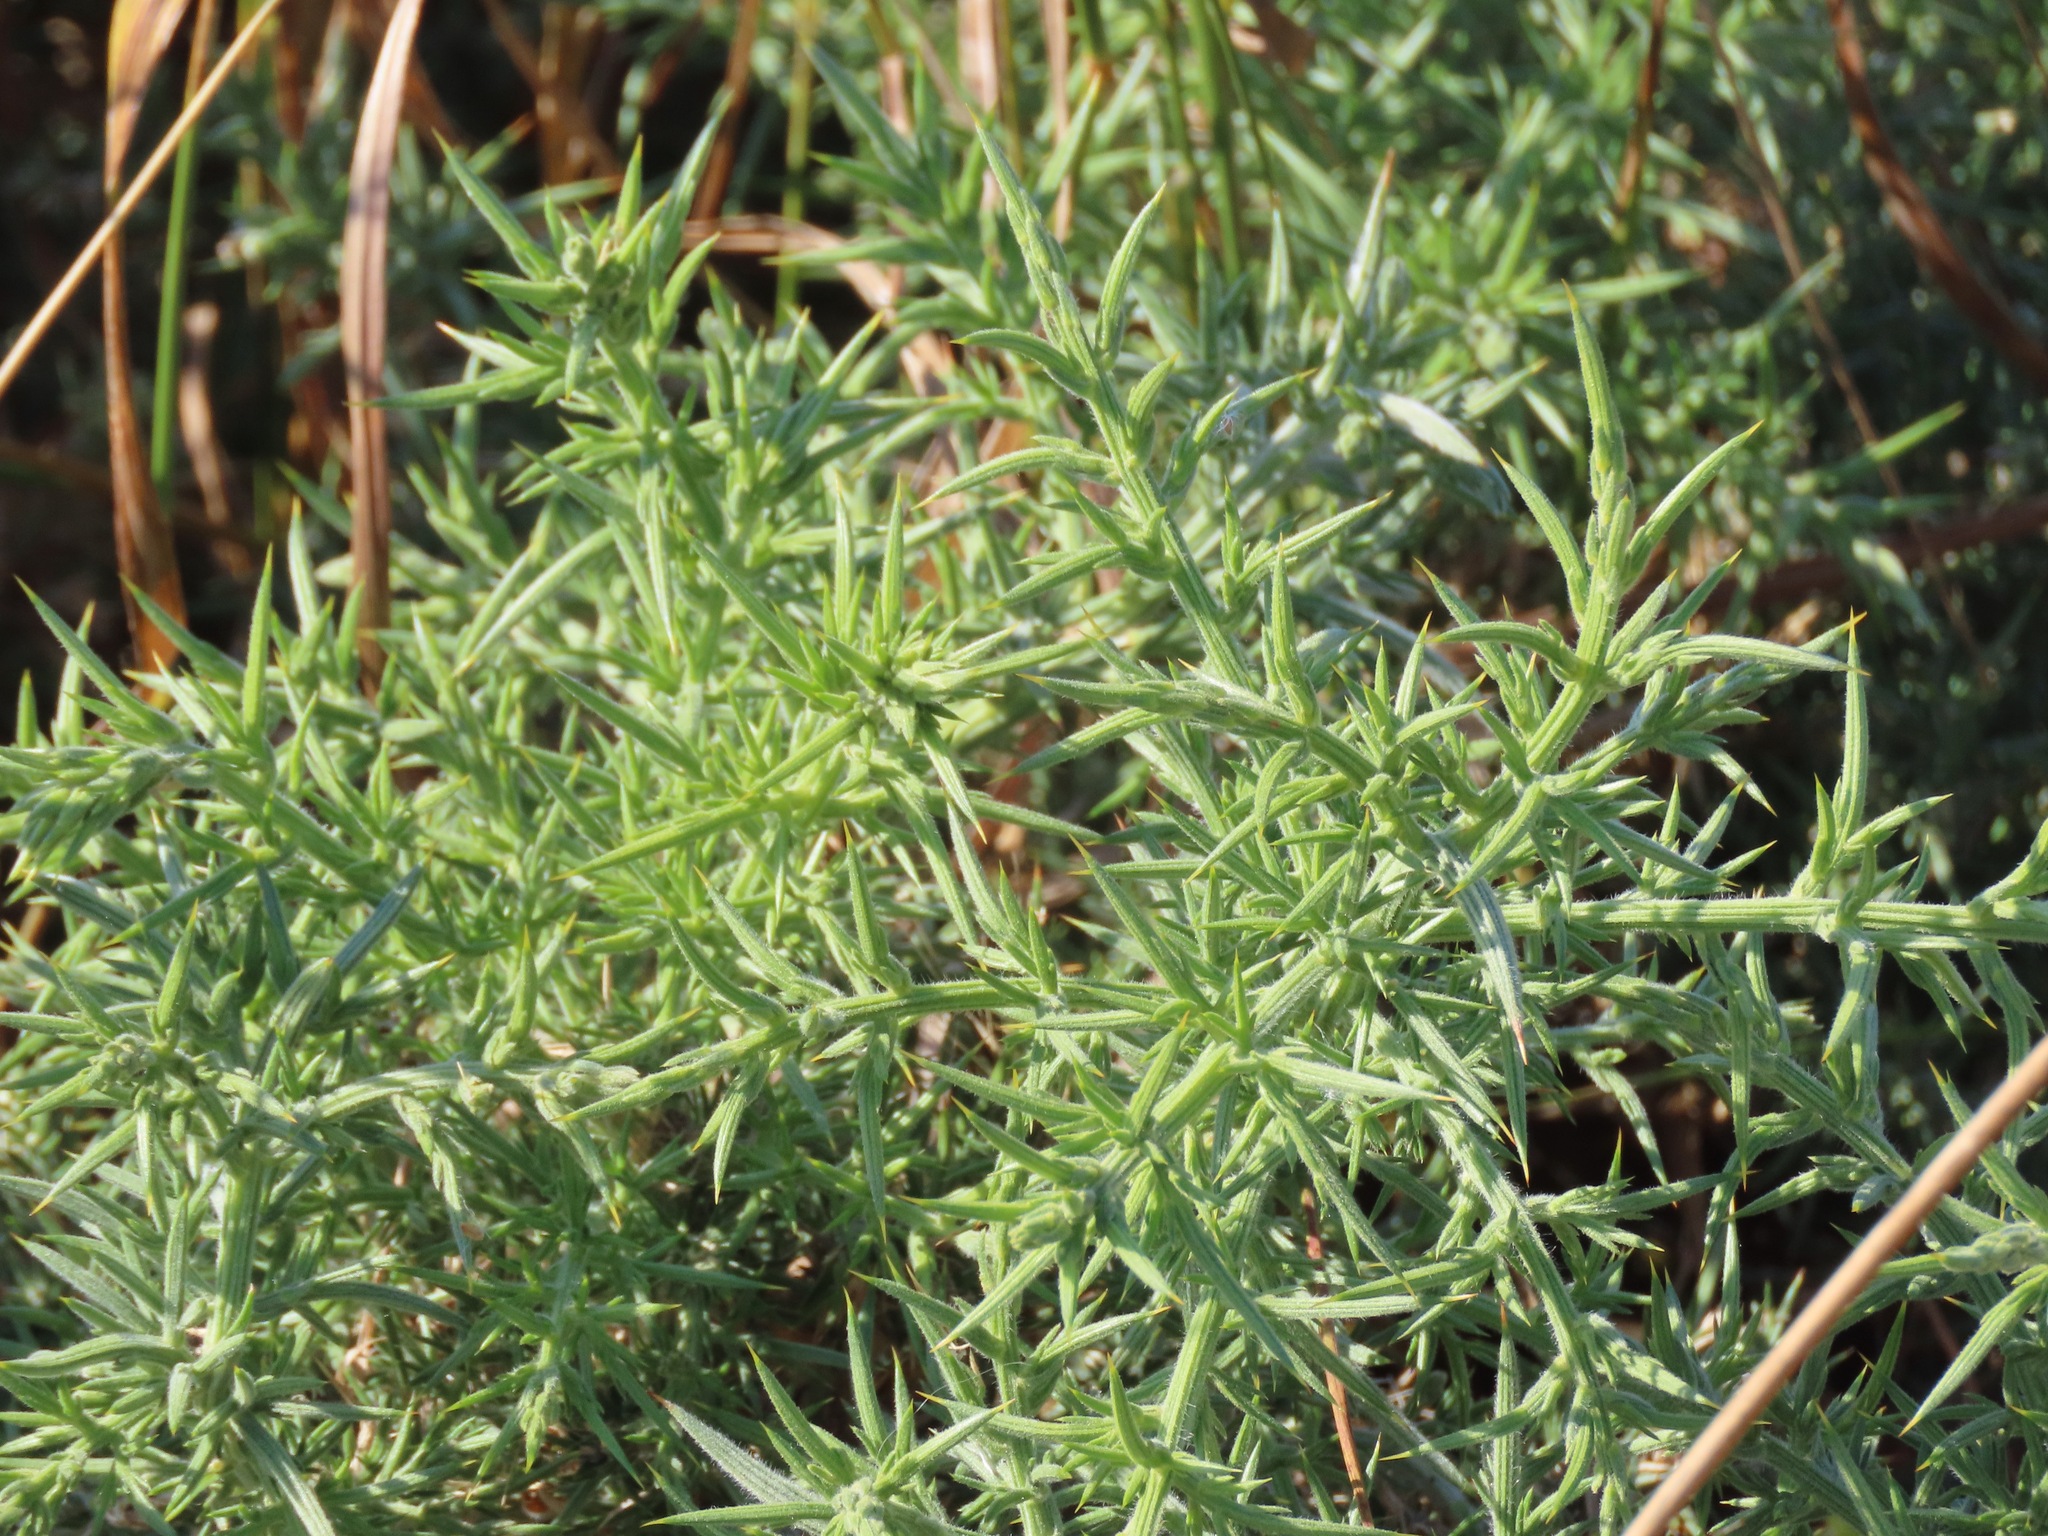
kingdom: Plantae
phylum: Tracheophyta
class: Magnoliopsida
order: Fabales
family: Fabaceae
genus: Ulex
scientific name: Ulex europaeus
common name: Common gorse
